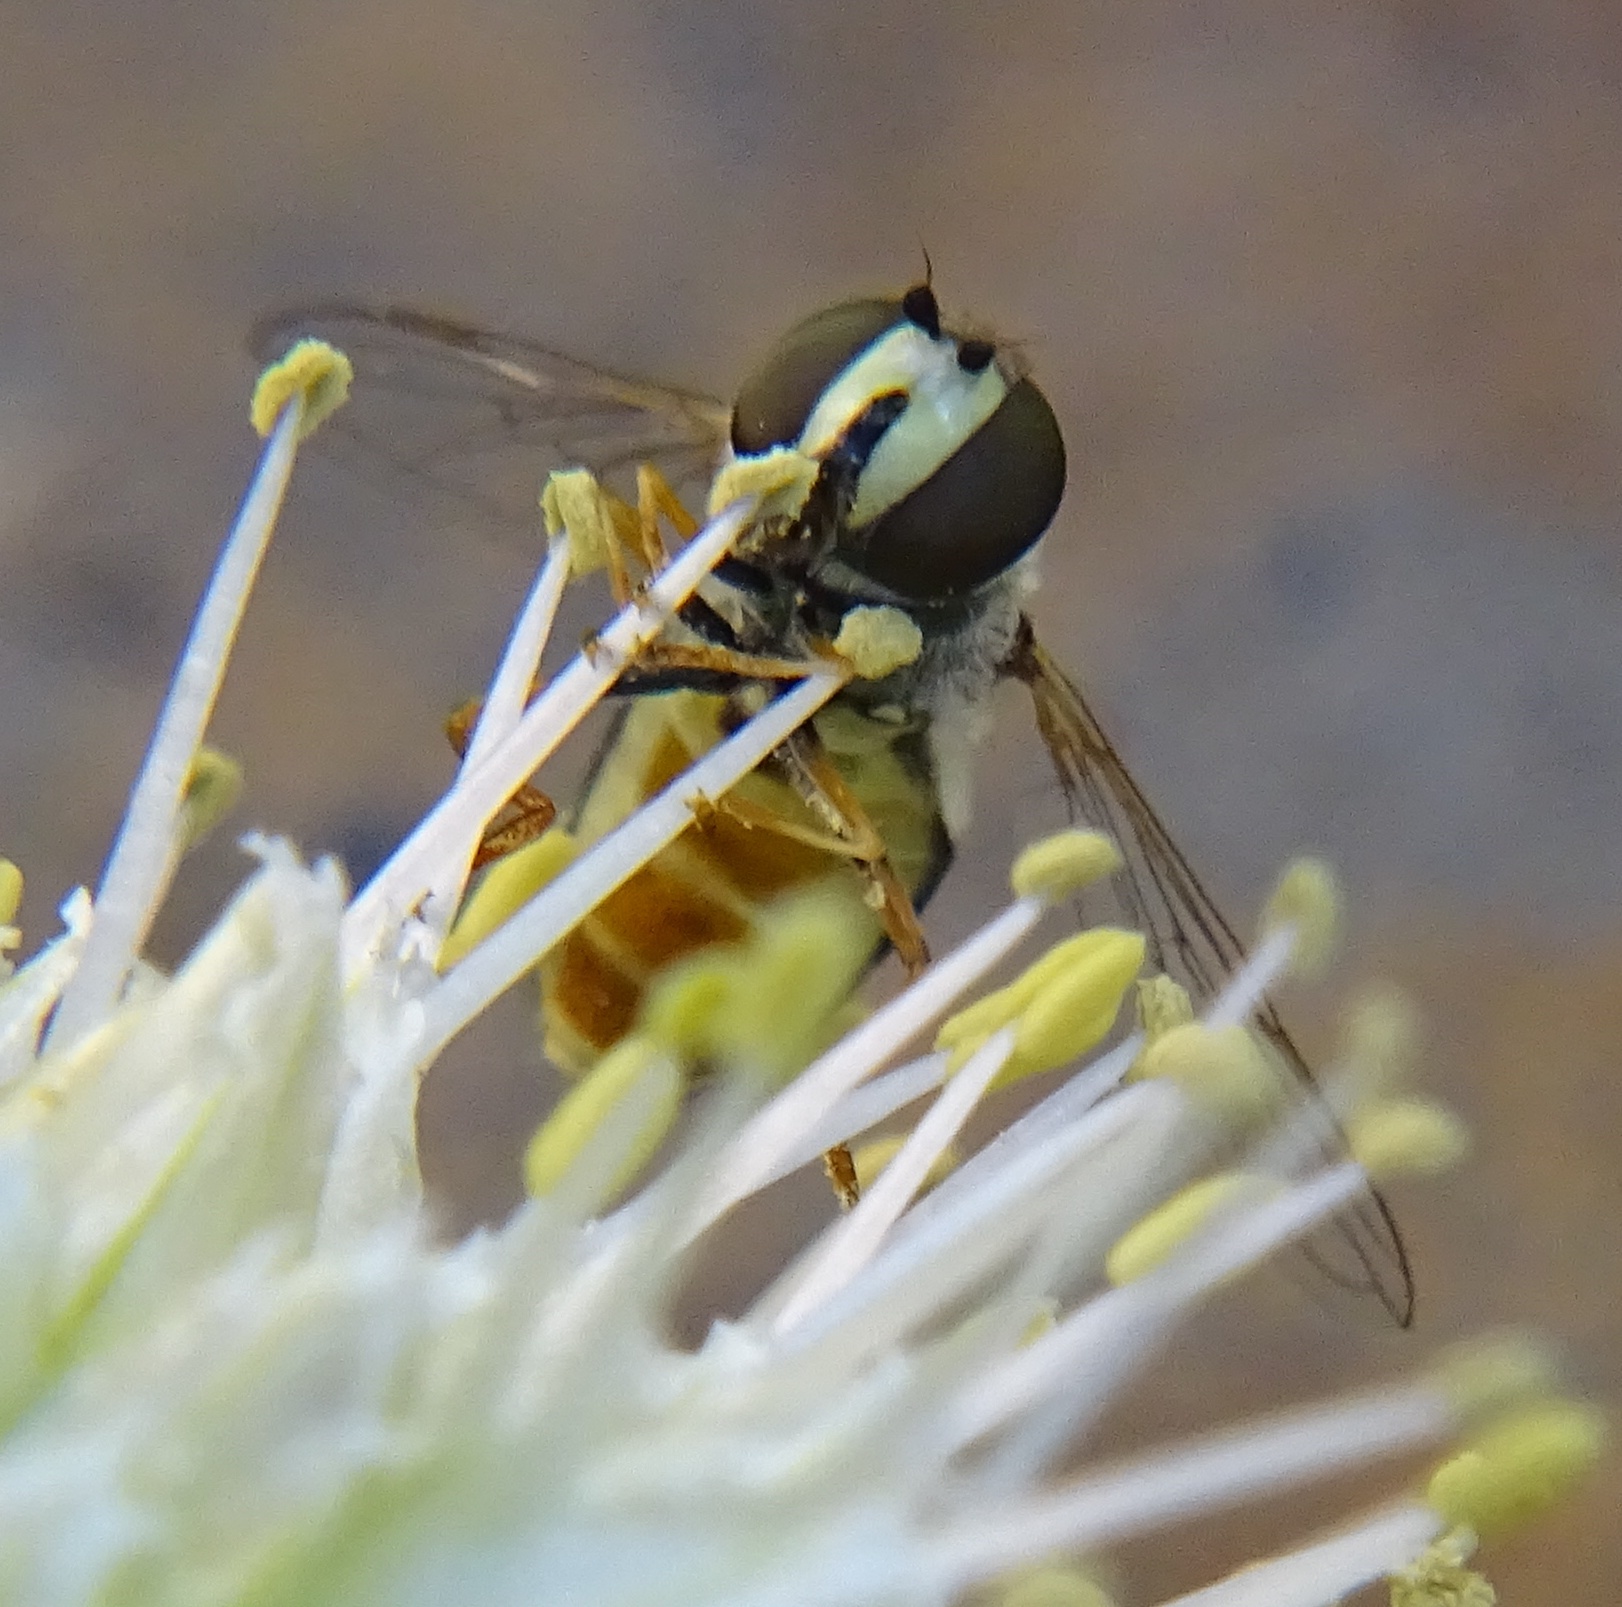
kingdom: Animalia
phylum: Arthropoda
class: Insecta
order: Diptera
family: Syrphidae
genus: Eupeodes
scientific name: Eupeodes volucris
